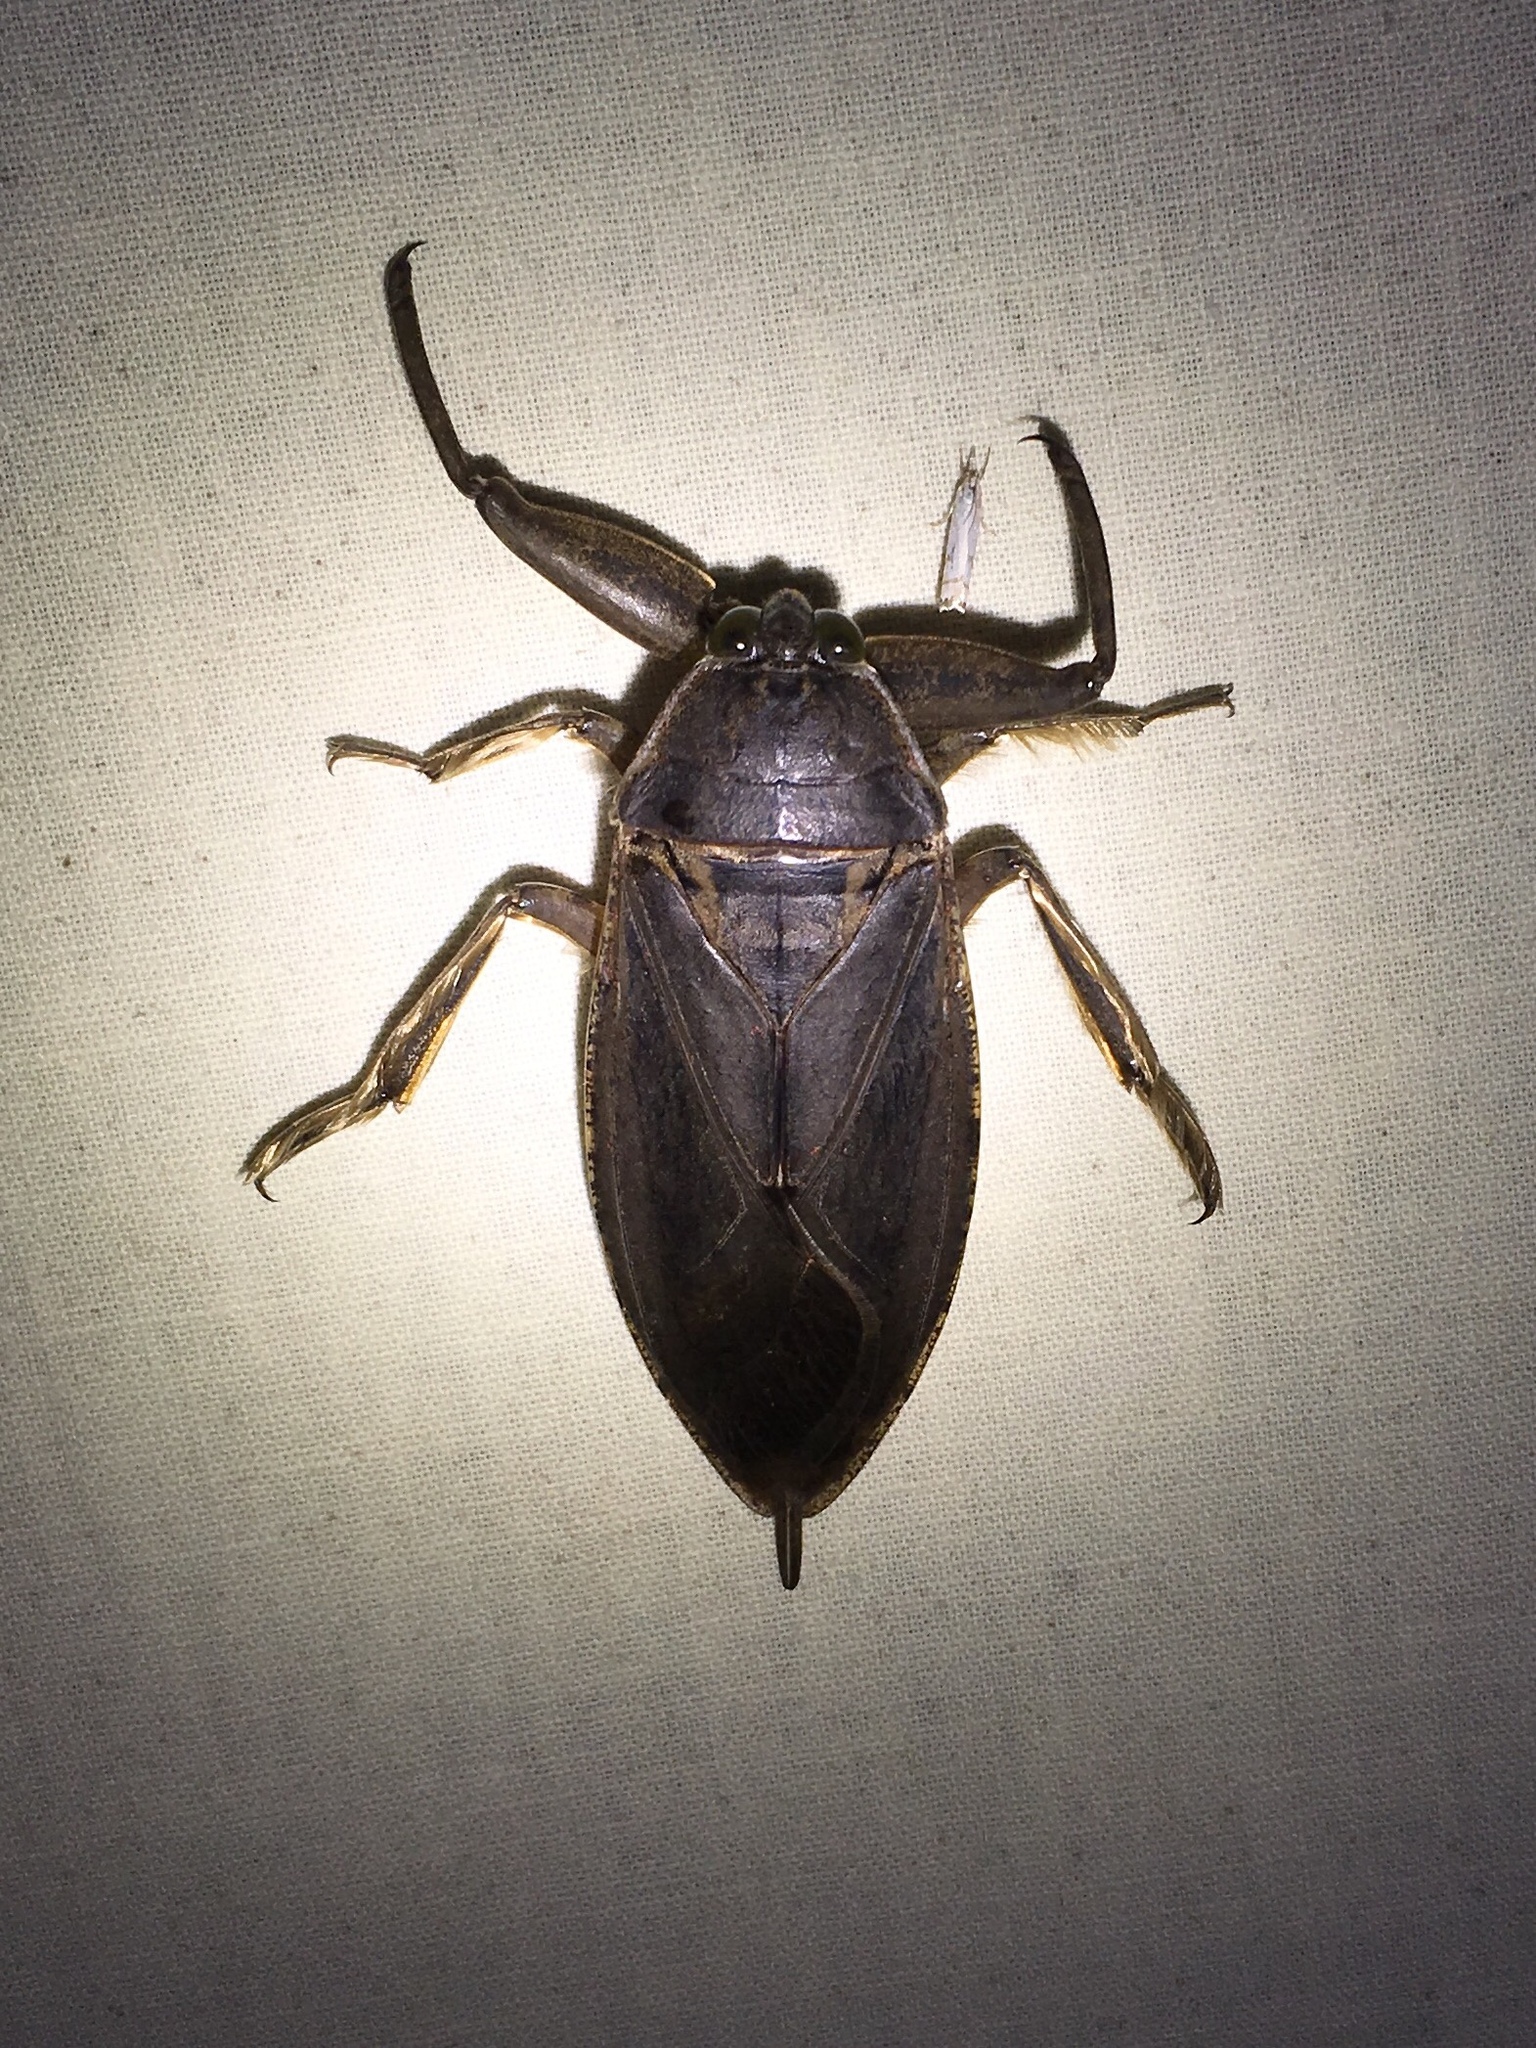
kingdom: Animalia
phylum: Arthropoda
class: Insecta
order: Hemiptera
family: Belostomatidae
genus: Lethocerus
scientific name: Lethocerus americanus
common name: Giant water bug
